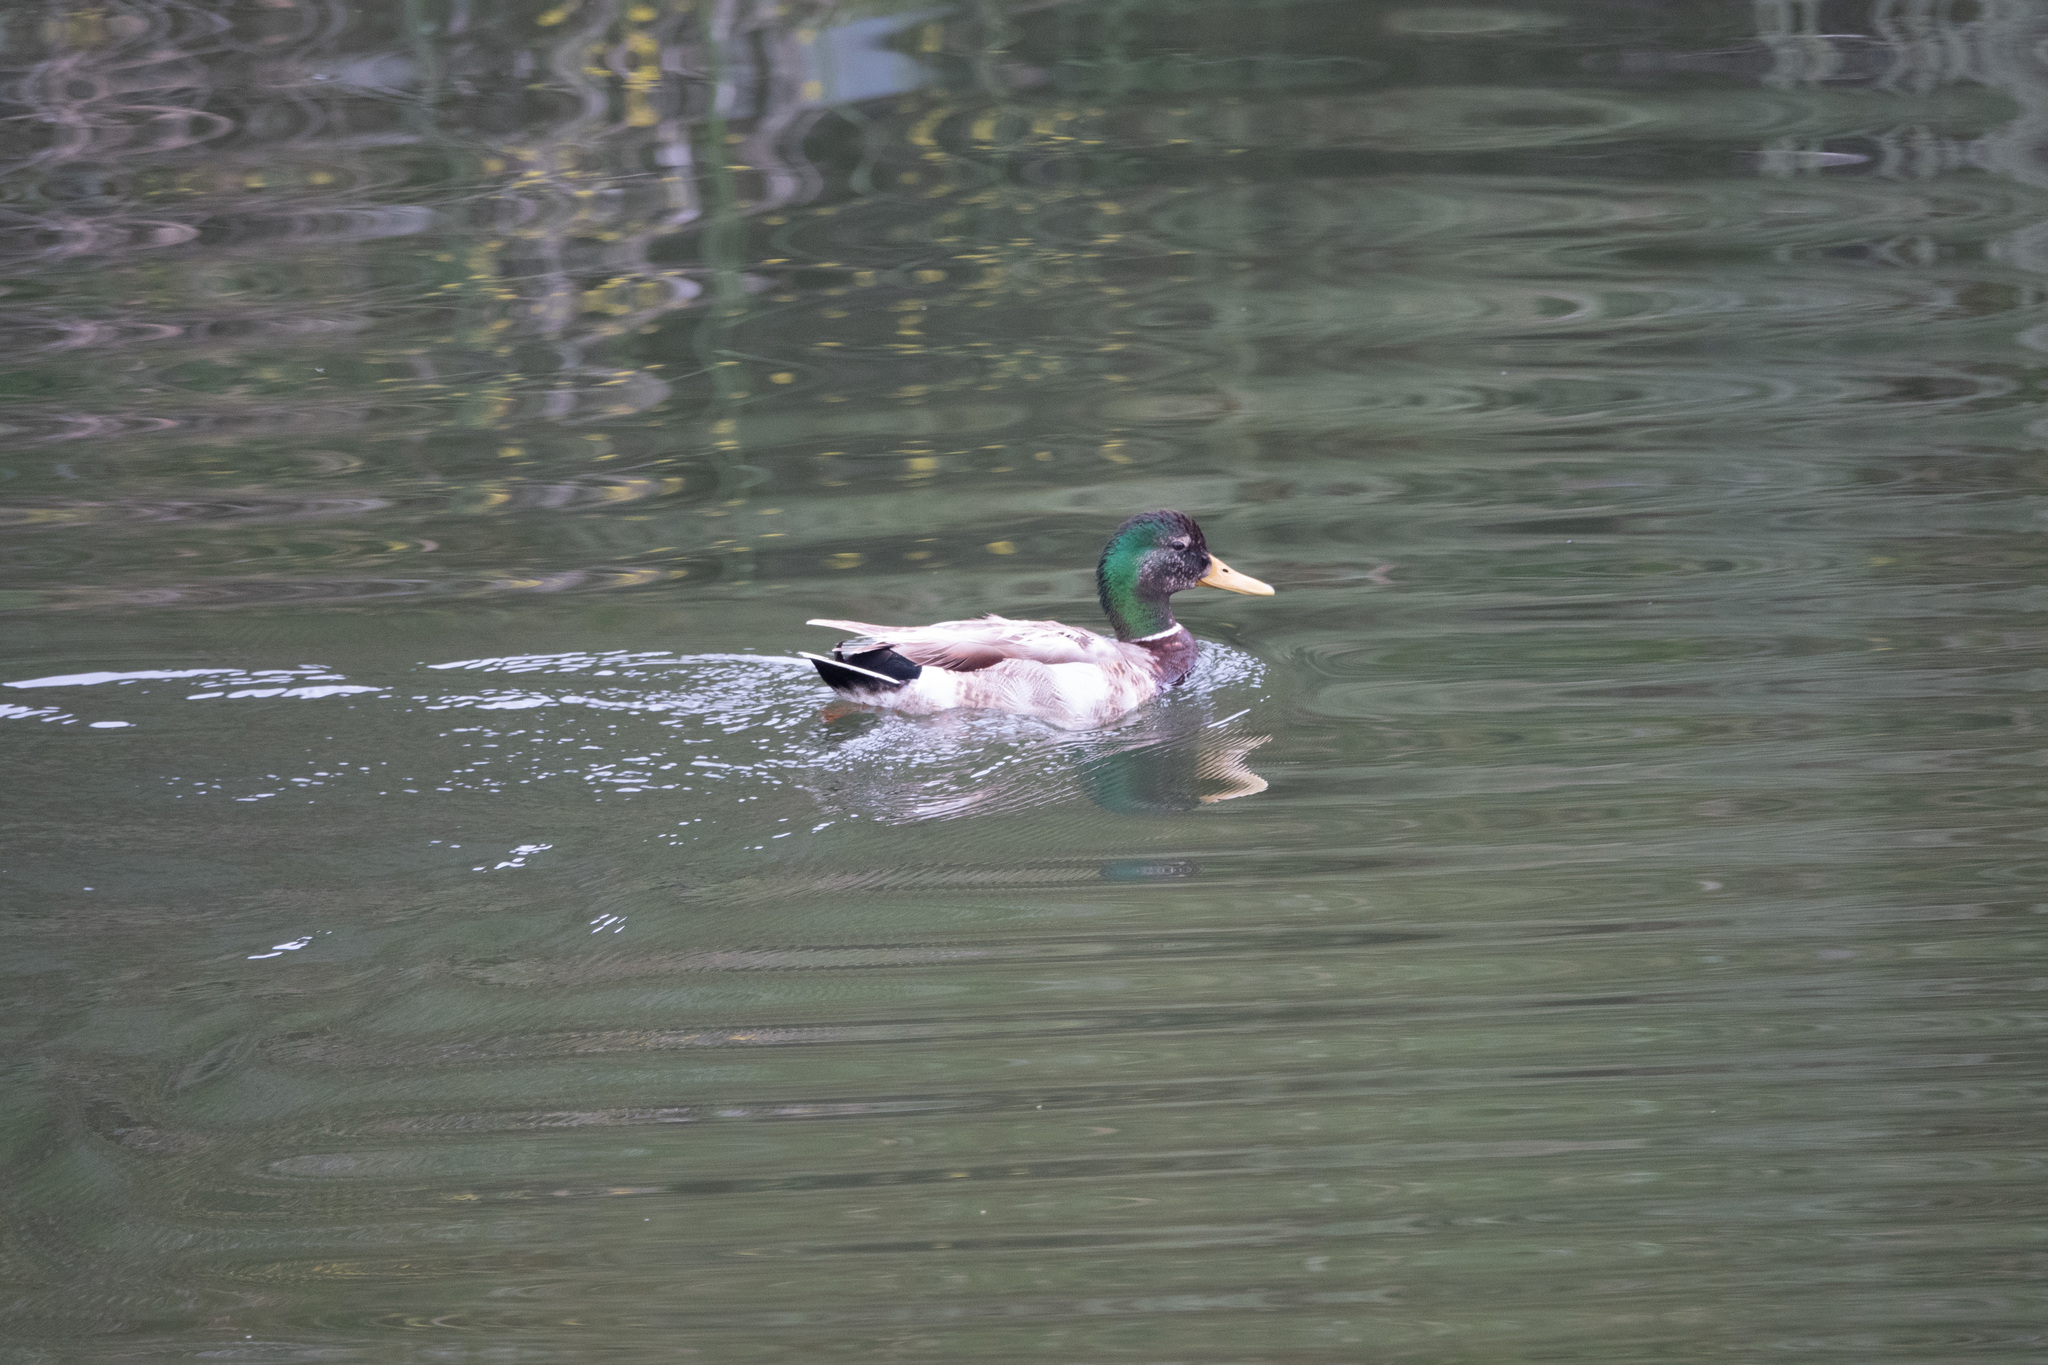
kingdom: Animalia
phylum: Chordata
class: Aves
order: Anseriformes
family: Anatidae
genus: Anas
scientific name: Anas platyrhynchos
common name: Mallard
